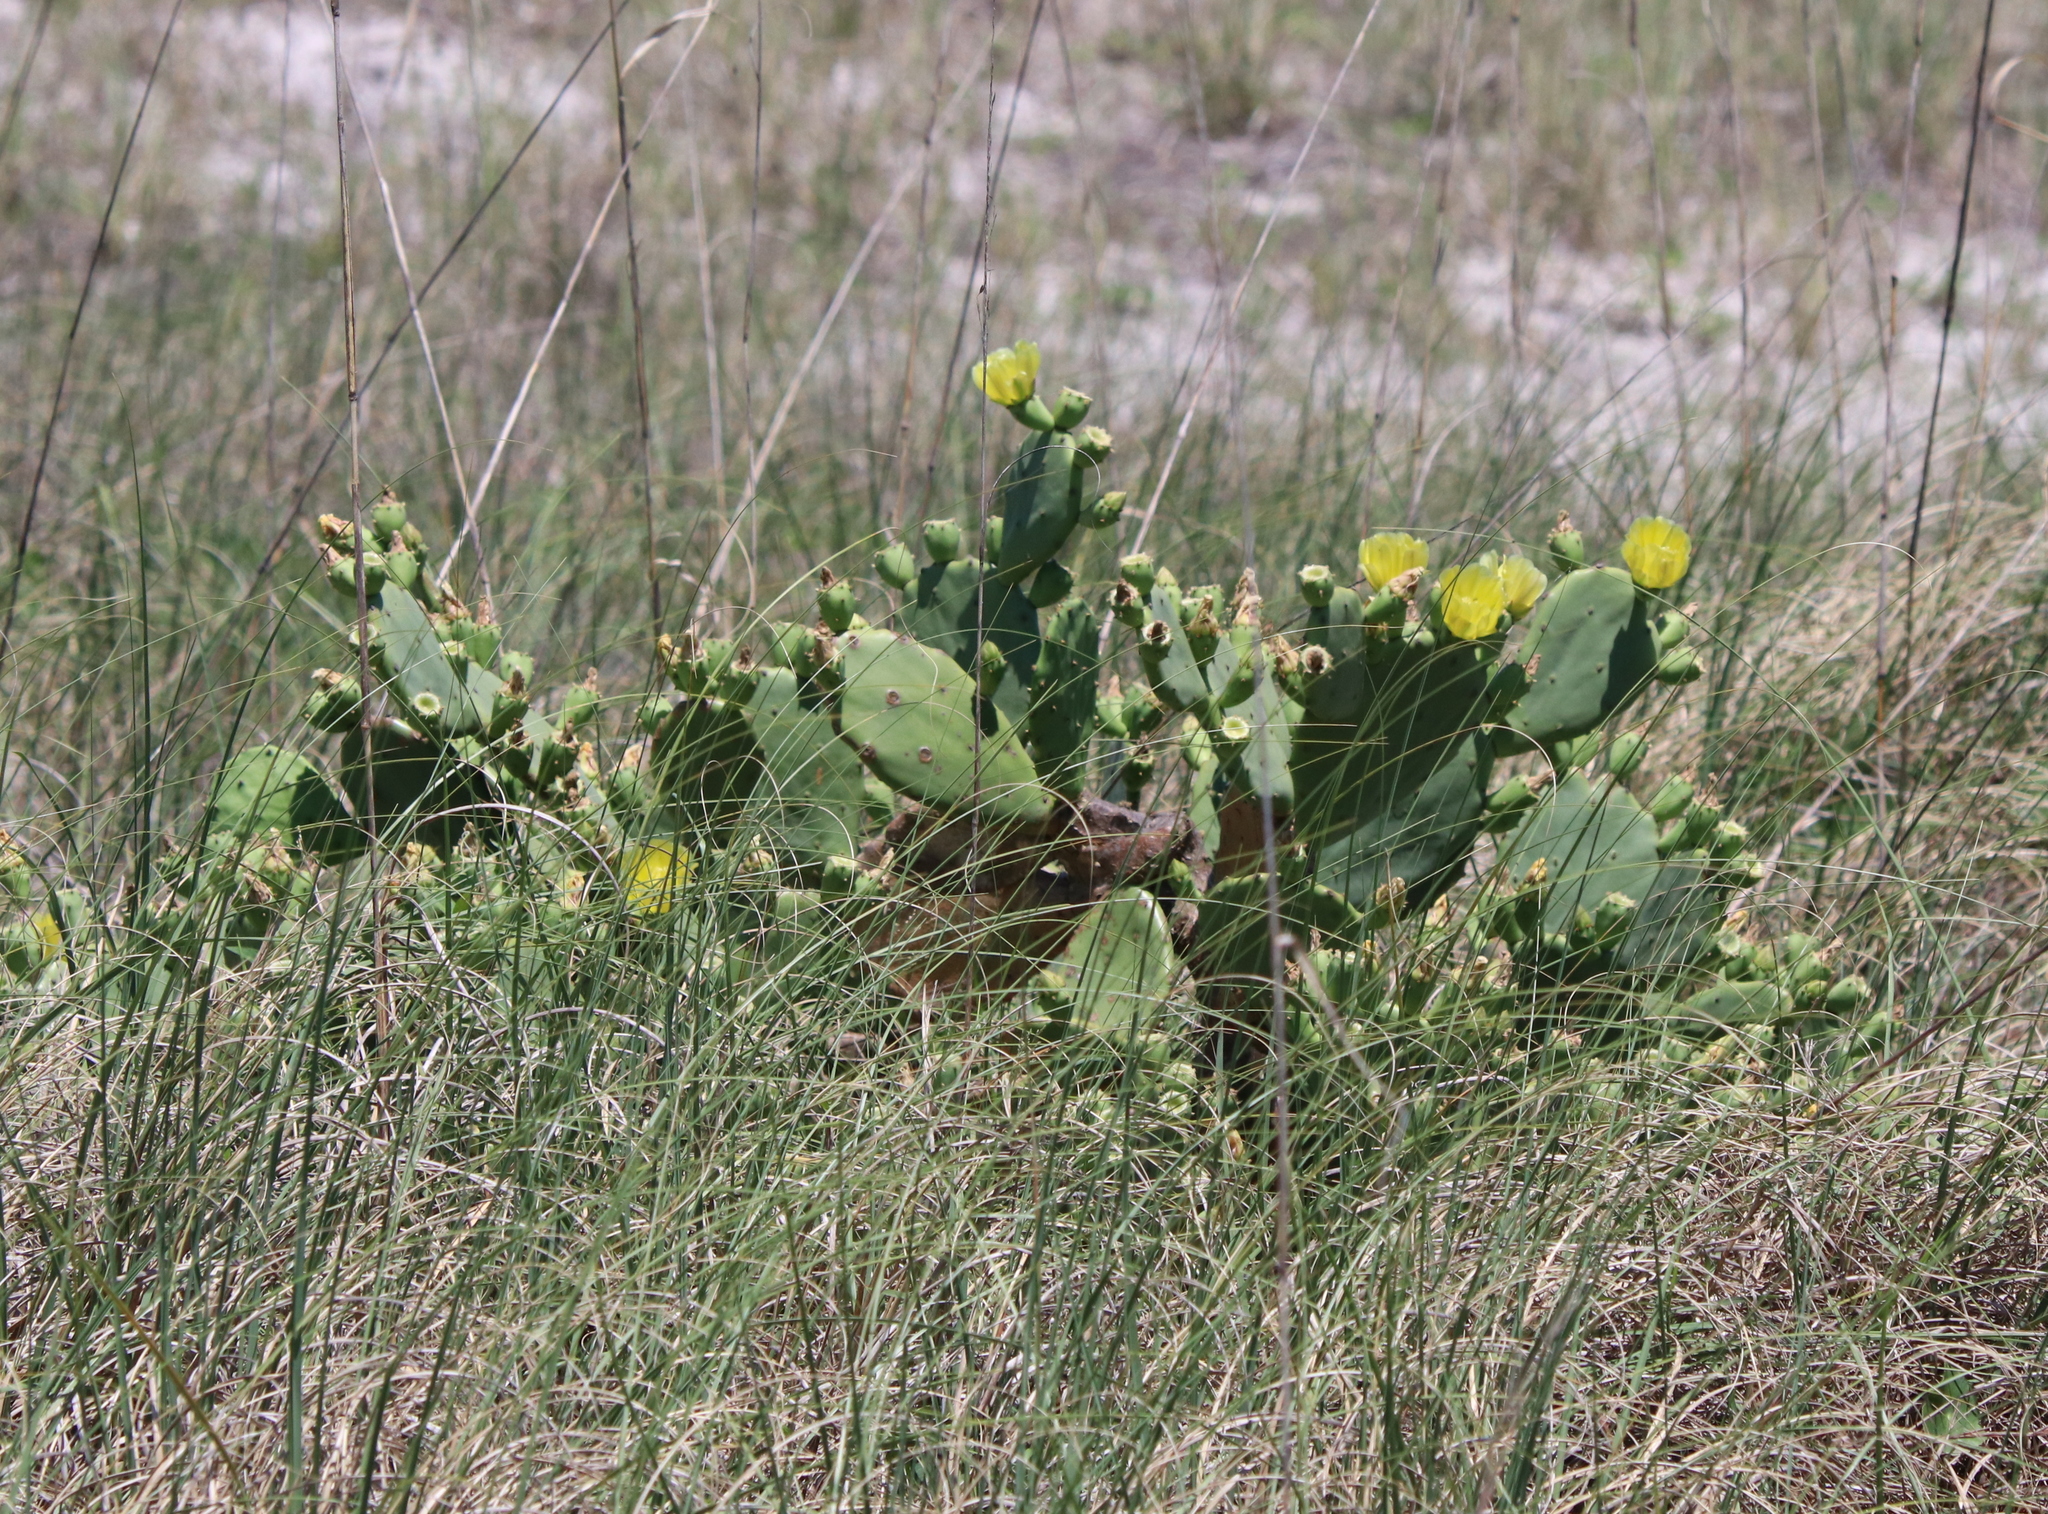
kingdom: Plantae
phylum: Tracheophyta
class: Magnoliopsida
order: Caryophyllales
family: Cactaceae
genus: Opuntia
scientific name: Opuntia stricta
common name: Erect pricklypear
